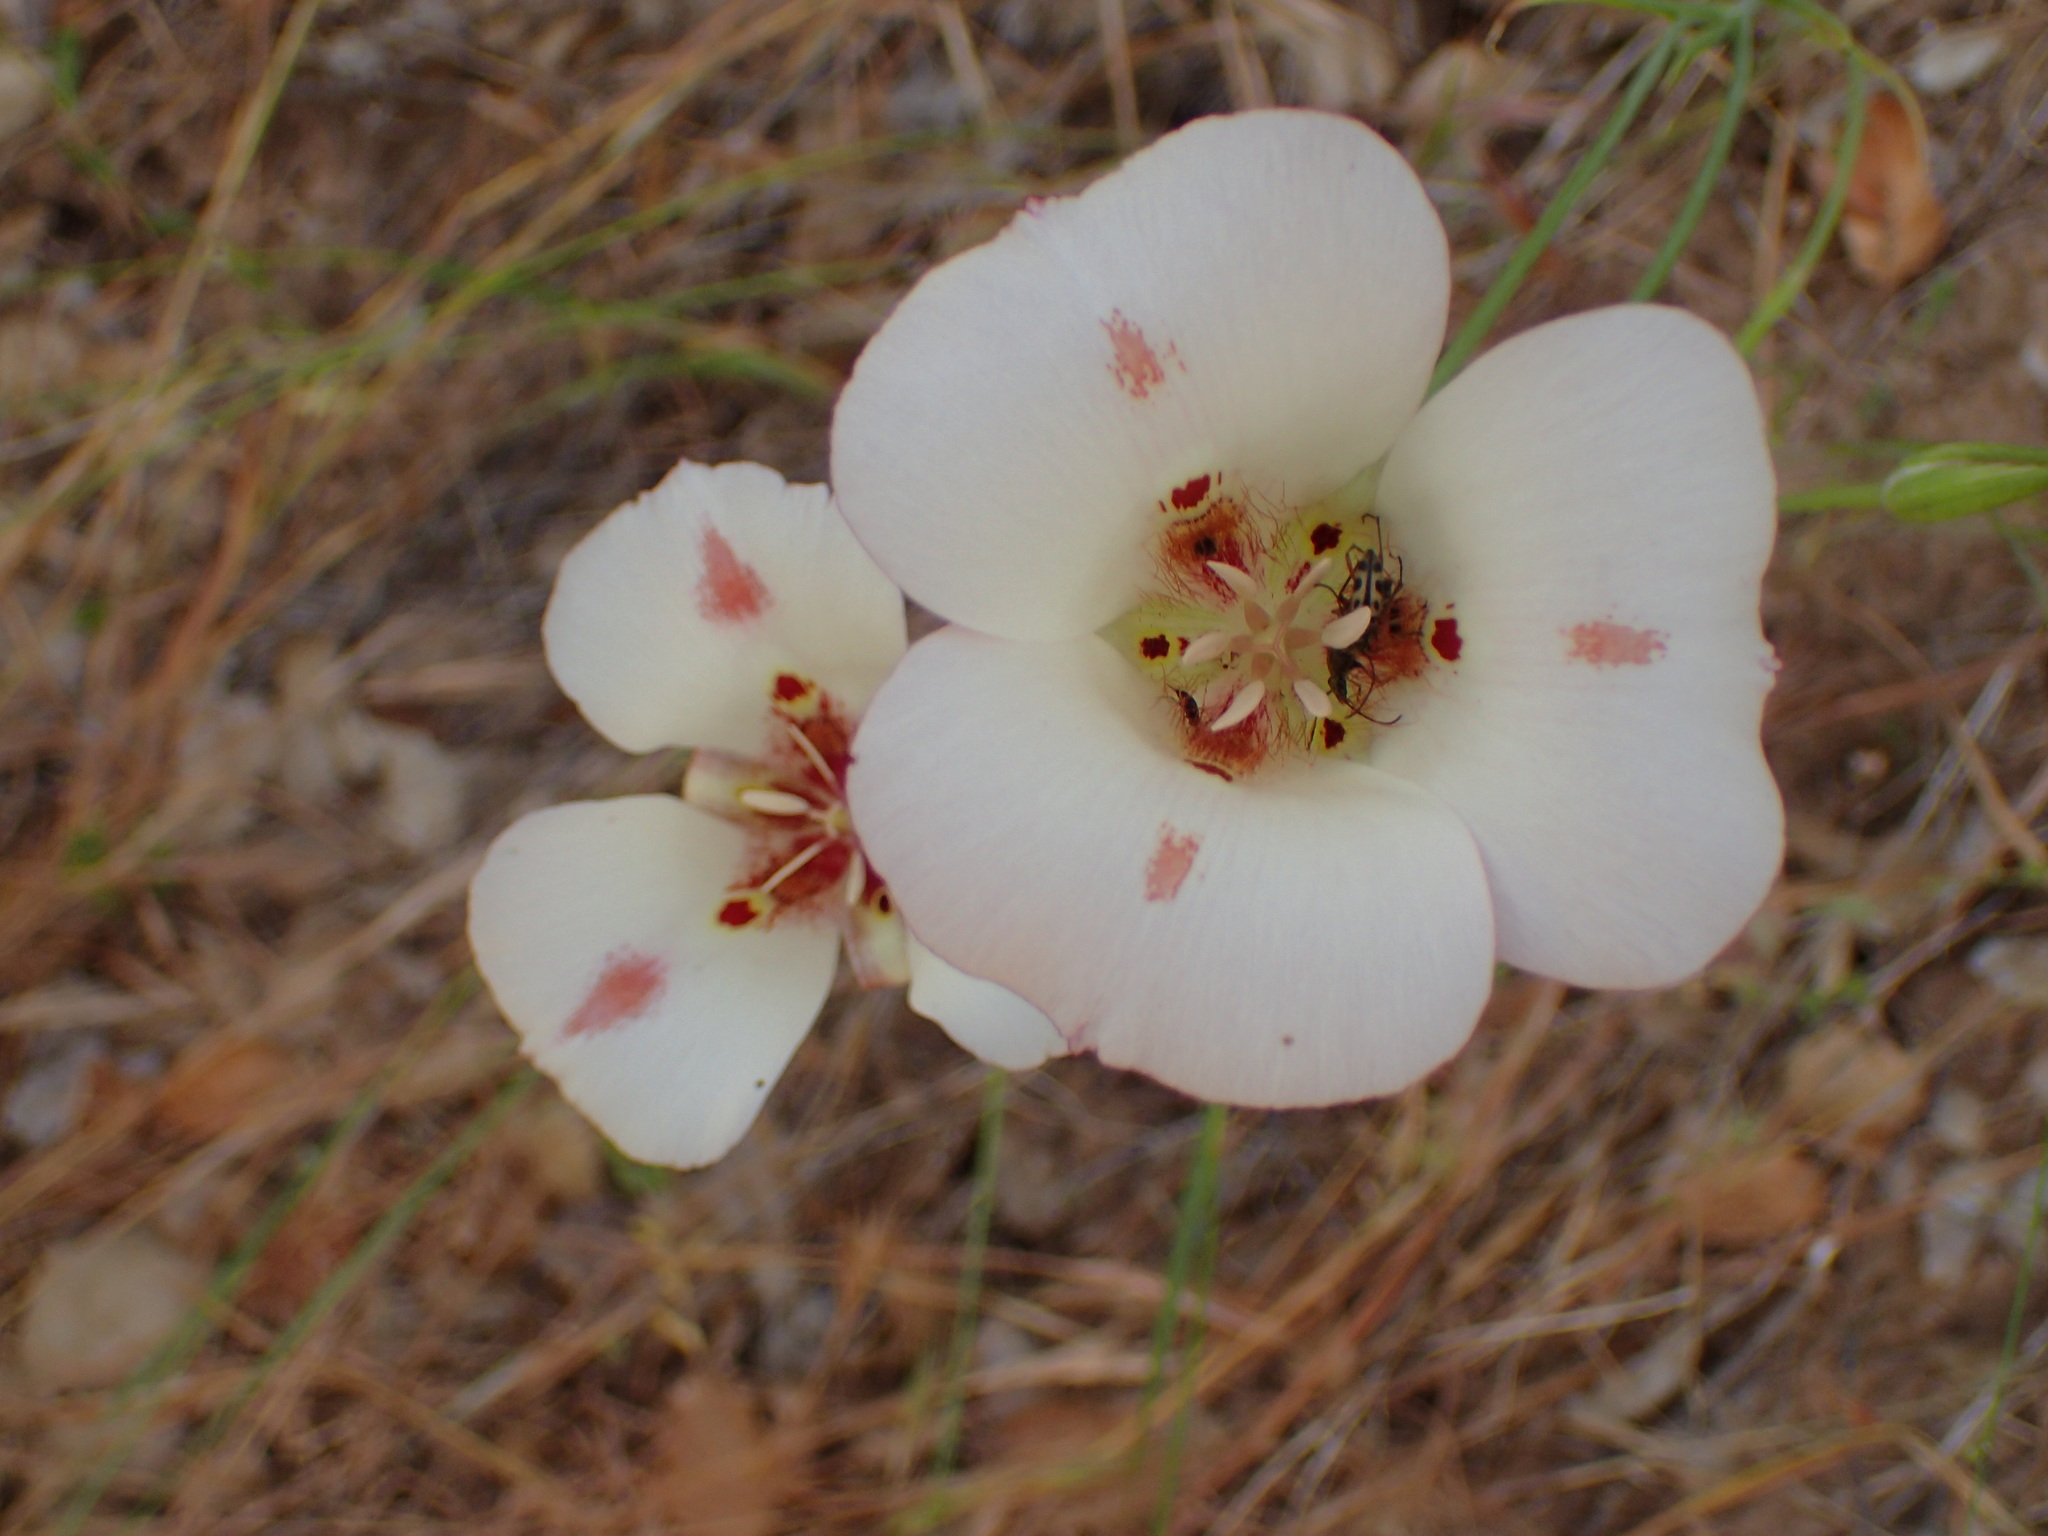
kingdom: Plantae
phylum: Tracheophyta
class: Liliopsida
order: Liliales
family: Liliaceae
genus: Calochortus
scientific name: Calochortus venustus
